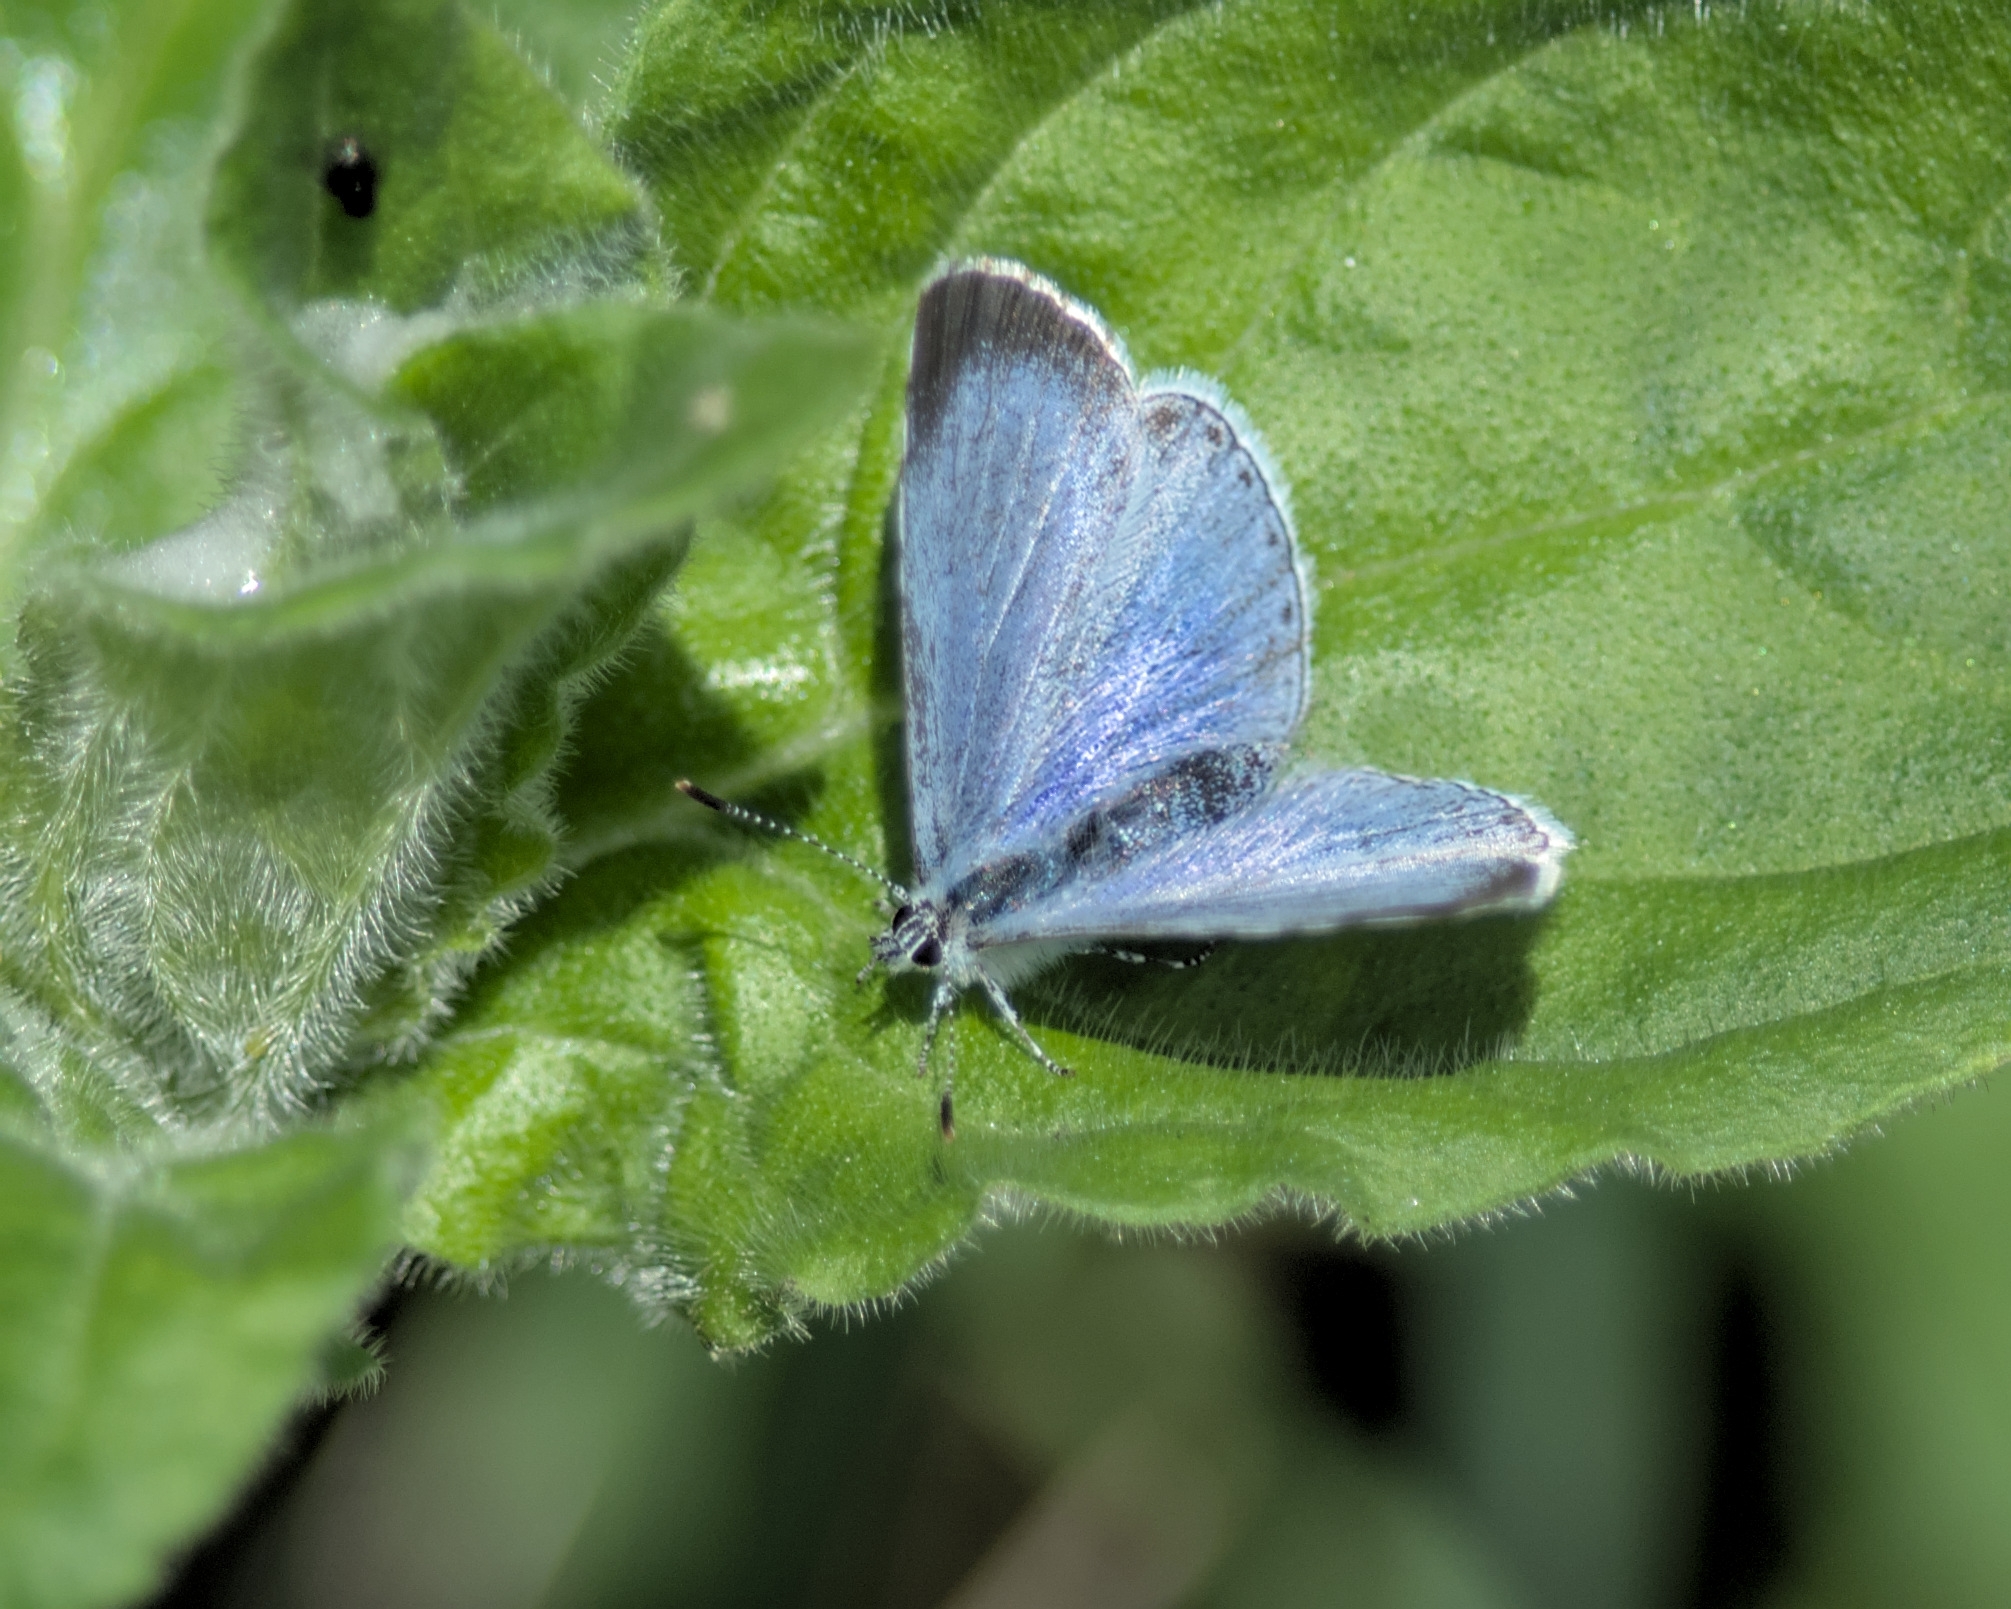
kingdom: Animalia
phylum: Arthropoda
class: Insecta
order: Lepidoptera
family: Lycaenidae
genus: Celastrina
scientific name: Celastrina argiolus
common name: Holly blue
